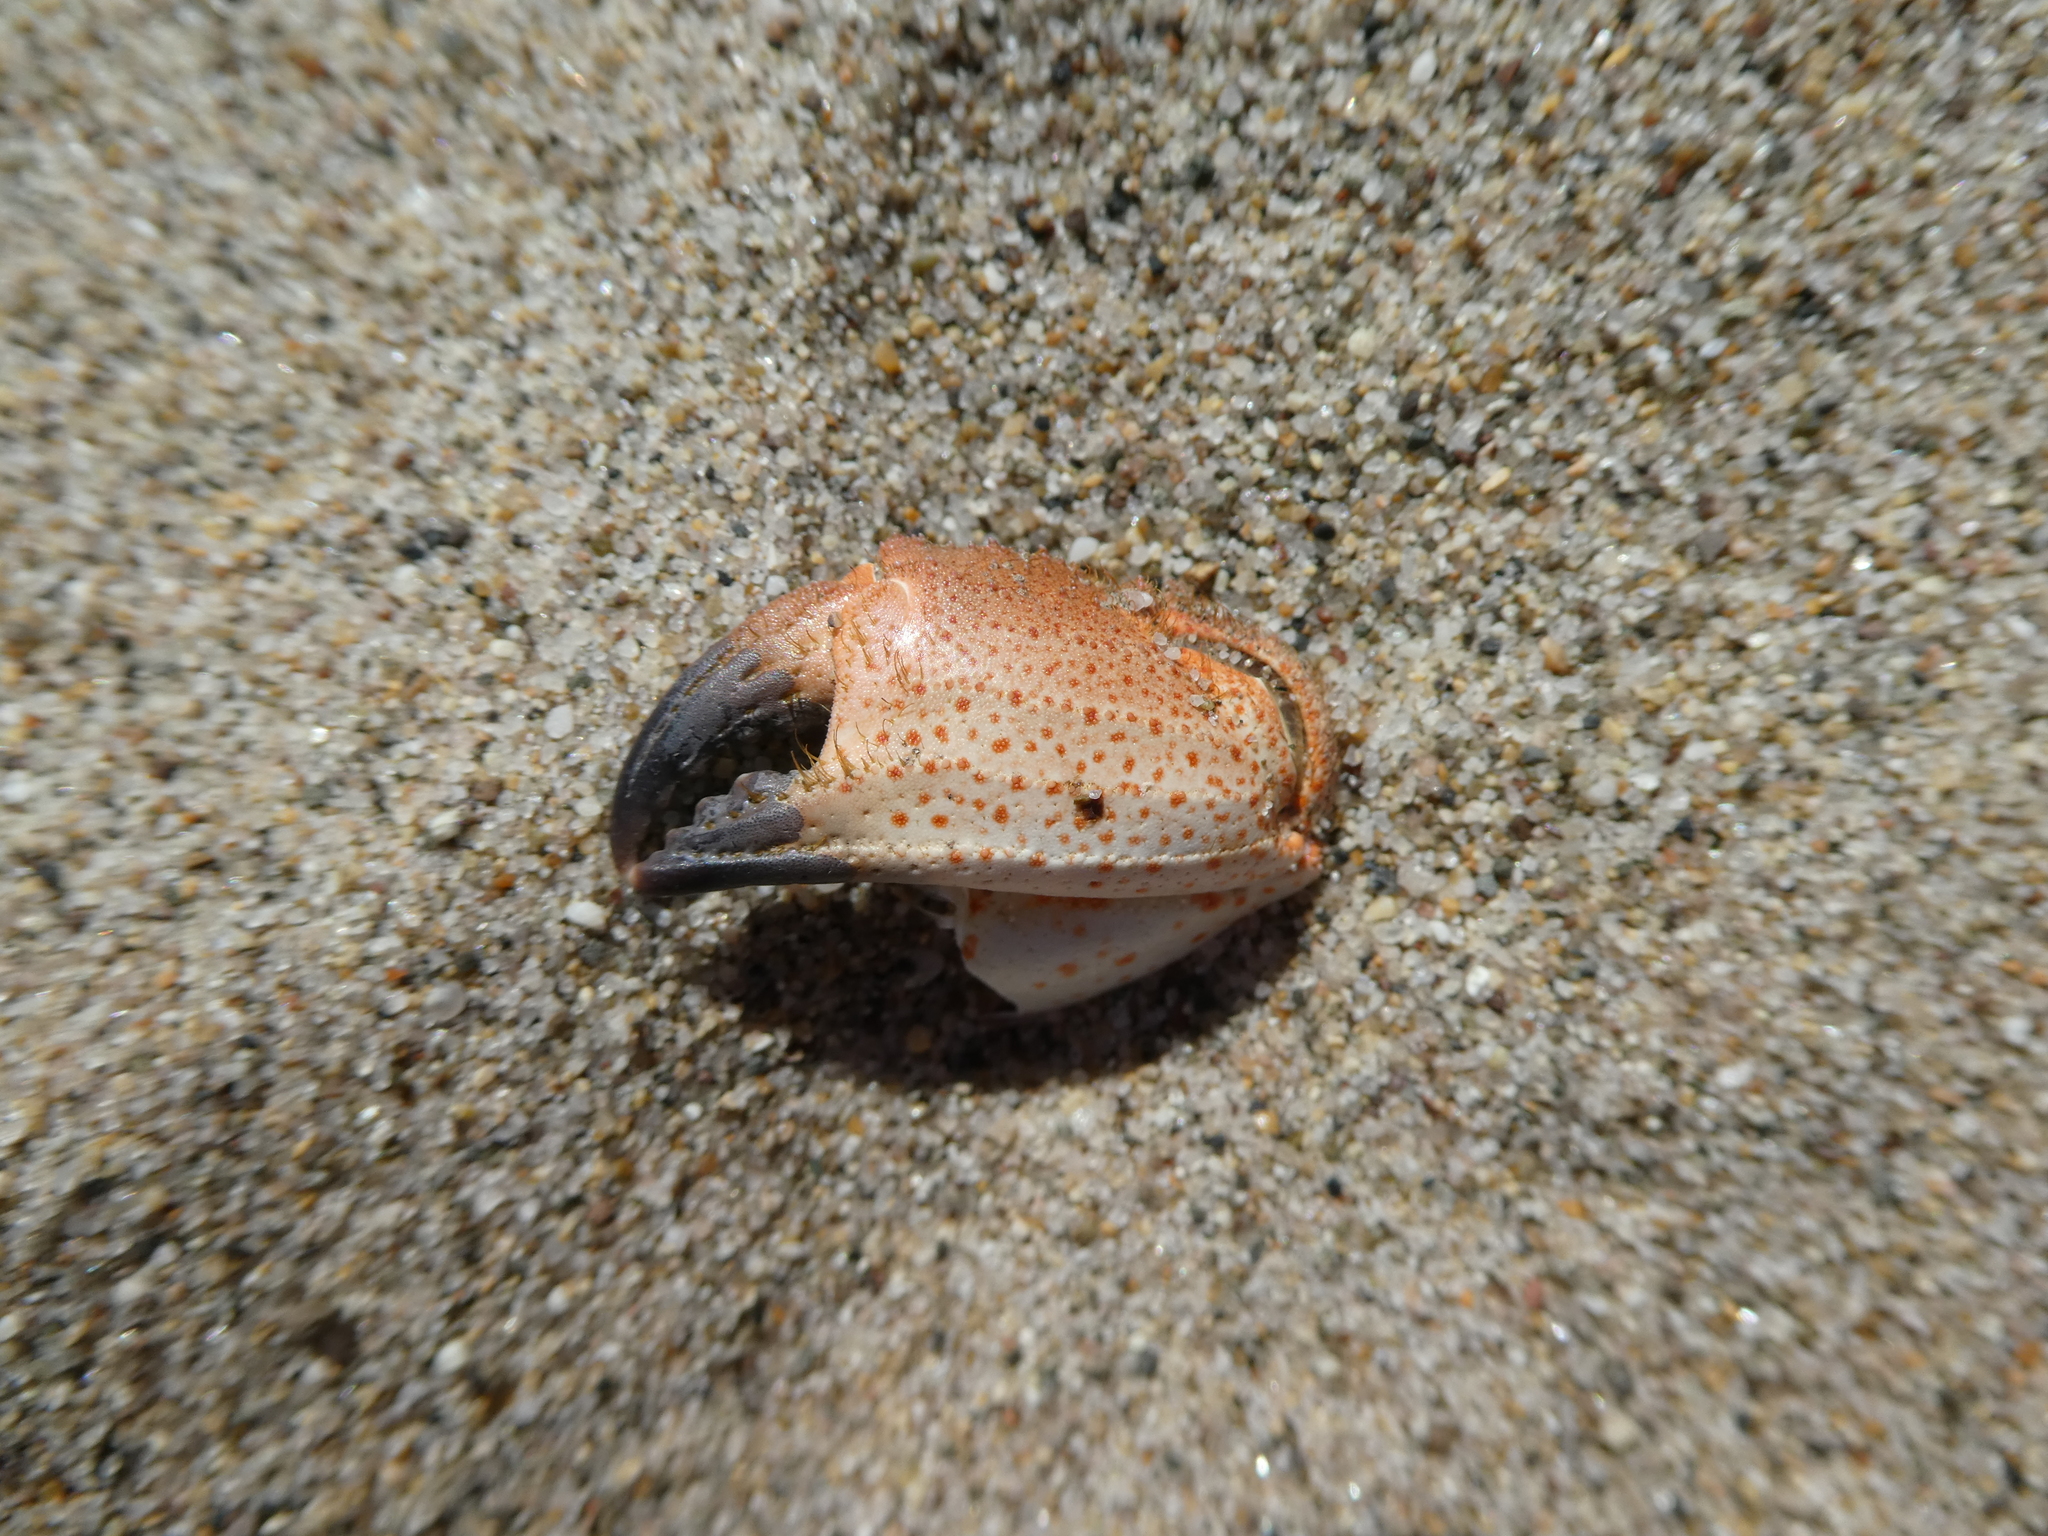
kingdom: Animalia
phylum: Arthropoda
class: Malacostraca
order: Decapoda
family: Cancridae
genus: Romaleon
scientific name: Romaleon antennarium
